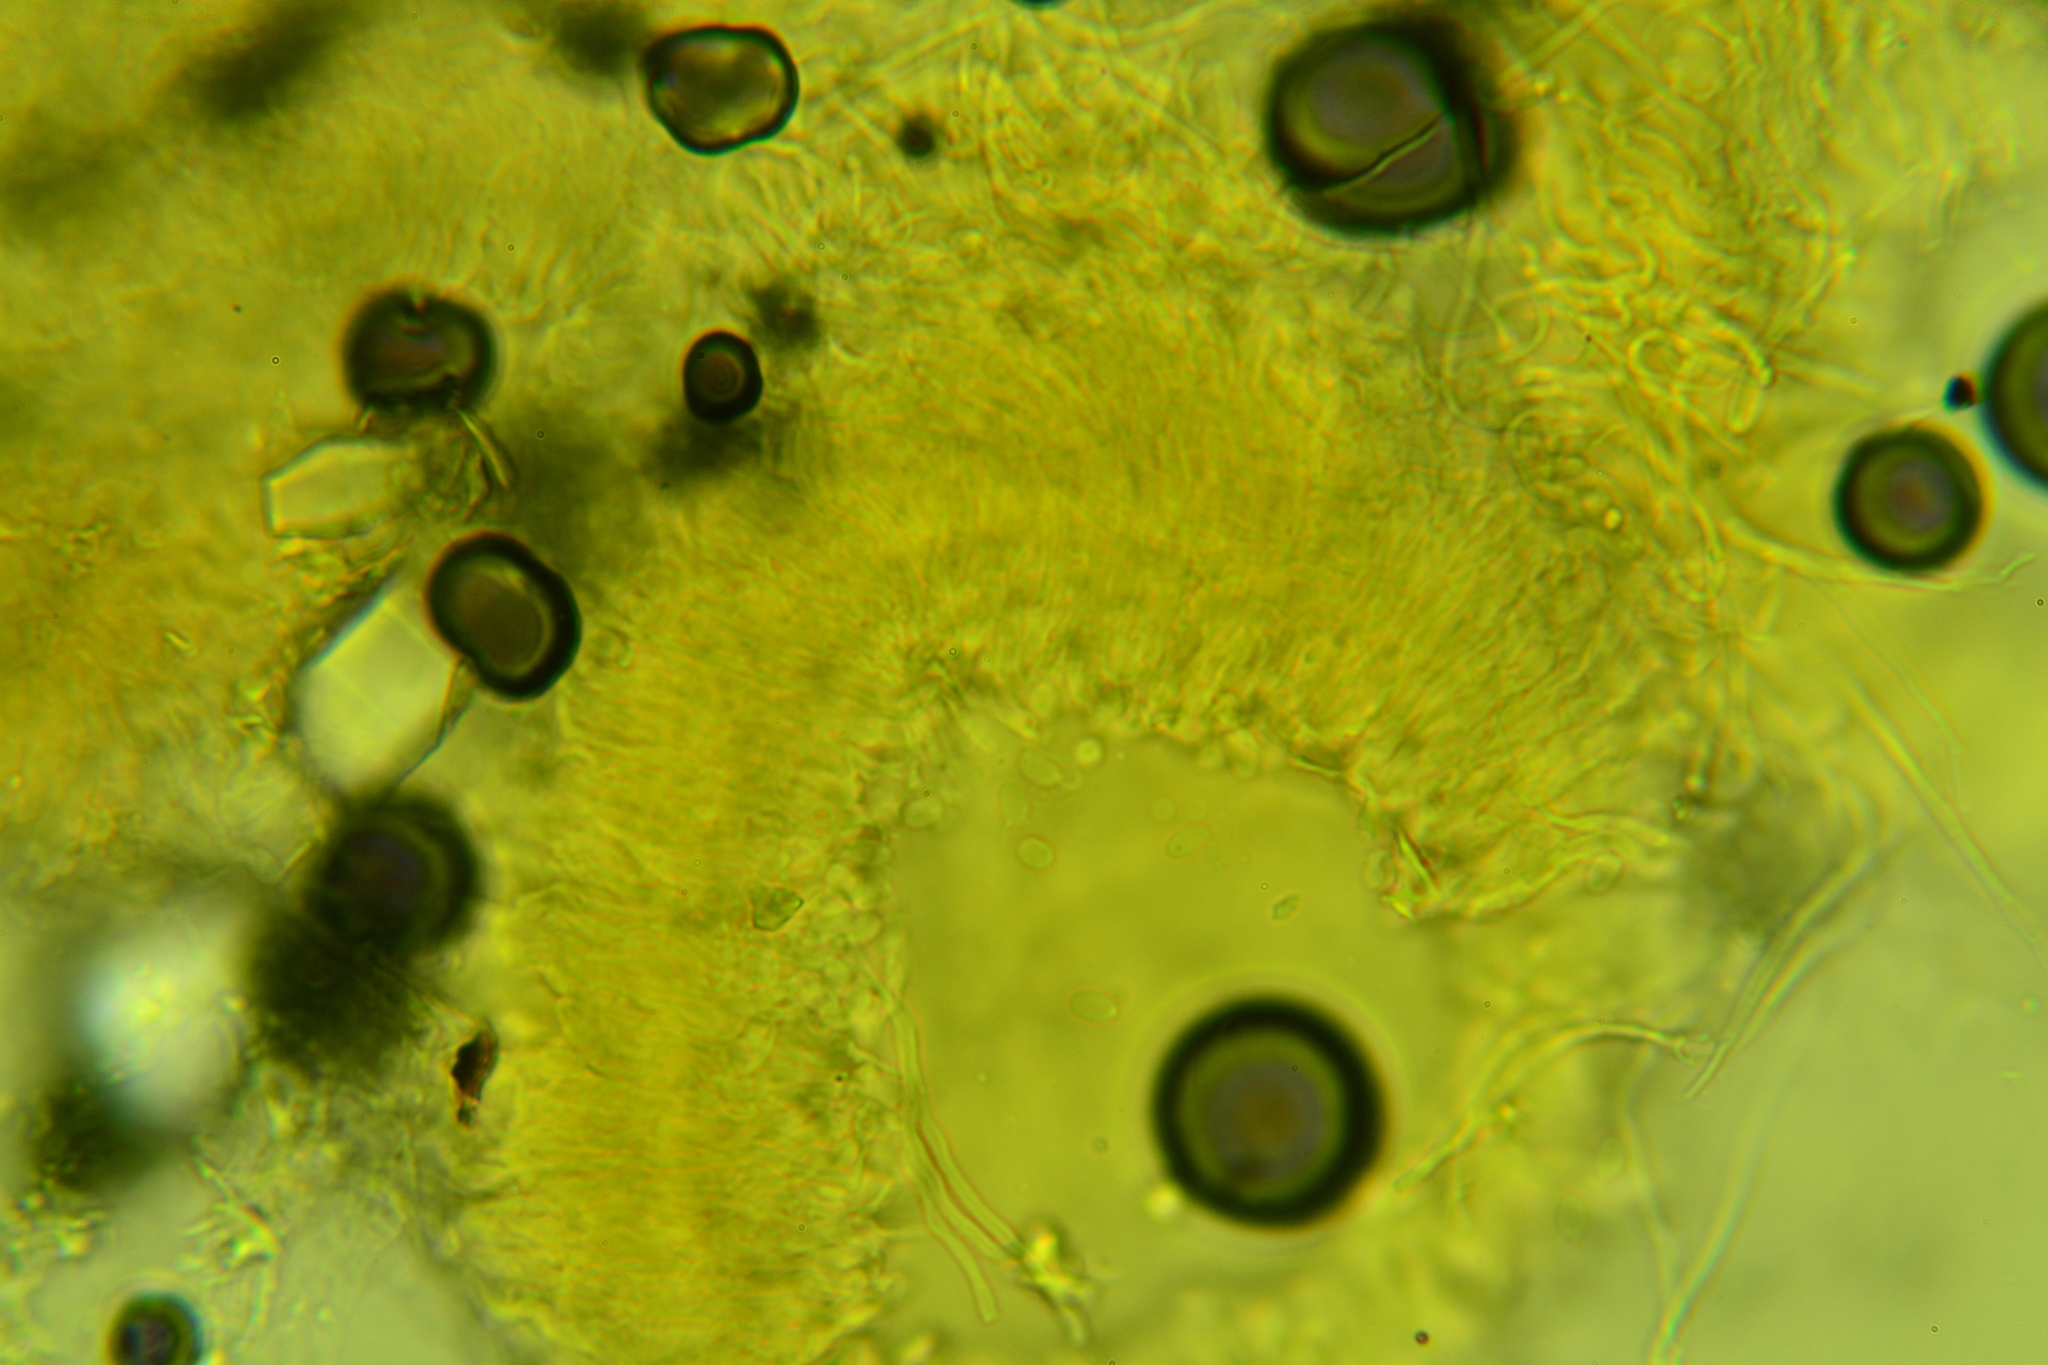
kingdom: Fungi
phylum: Basidiomycota
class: Agaricomycetes
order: Agaricales
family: Porotheleaceae
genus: Porotheleum
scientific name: Porotheleum fimbriatum
